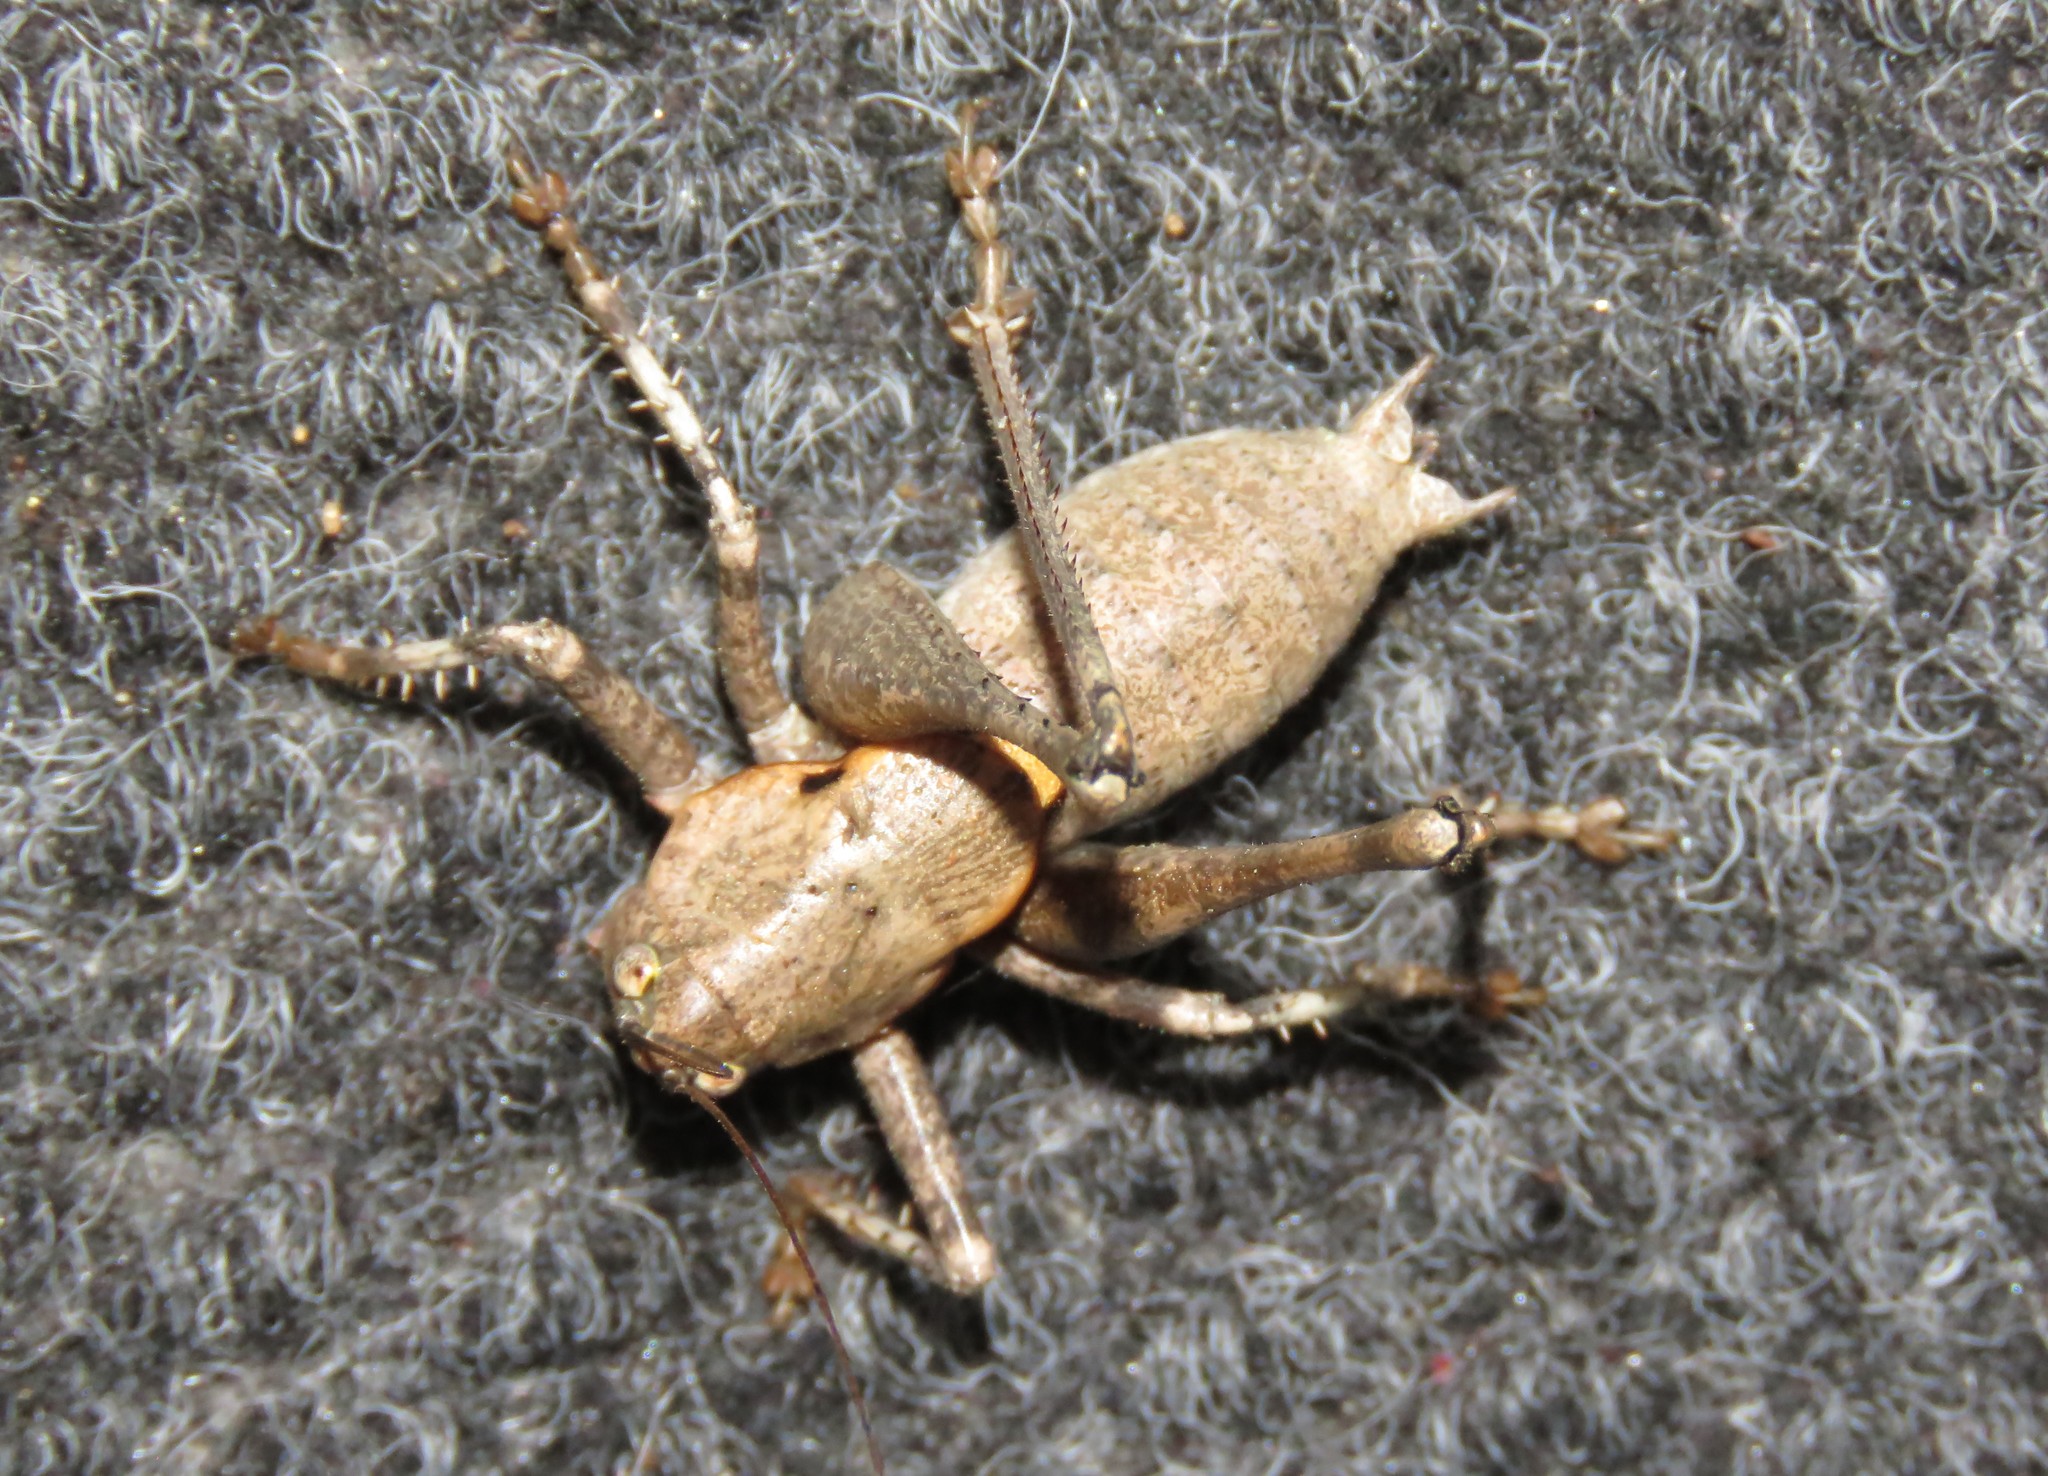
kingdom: Animalia
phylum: Arthropoda
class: Insecta
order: Orthoptera
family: Tettigoniidae
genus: Thyreonotus
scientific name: Thyreonotus bidens
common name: Two-toothed bush-cricket
